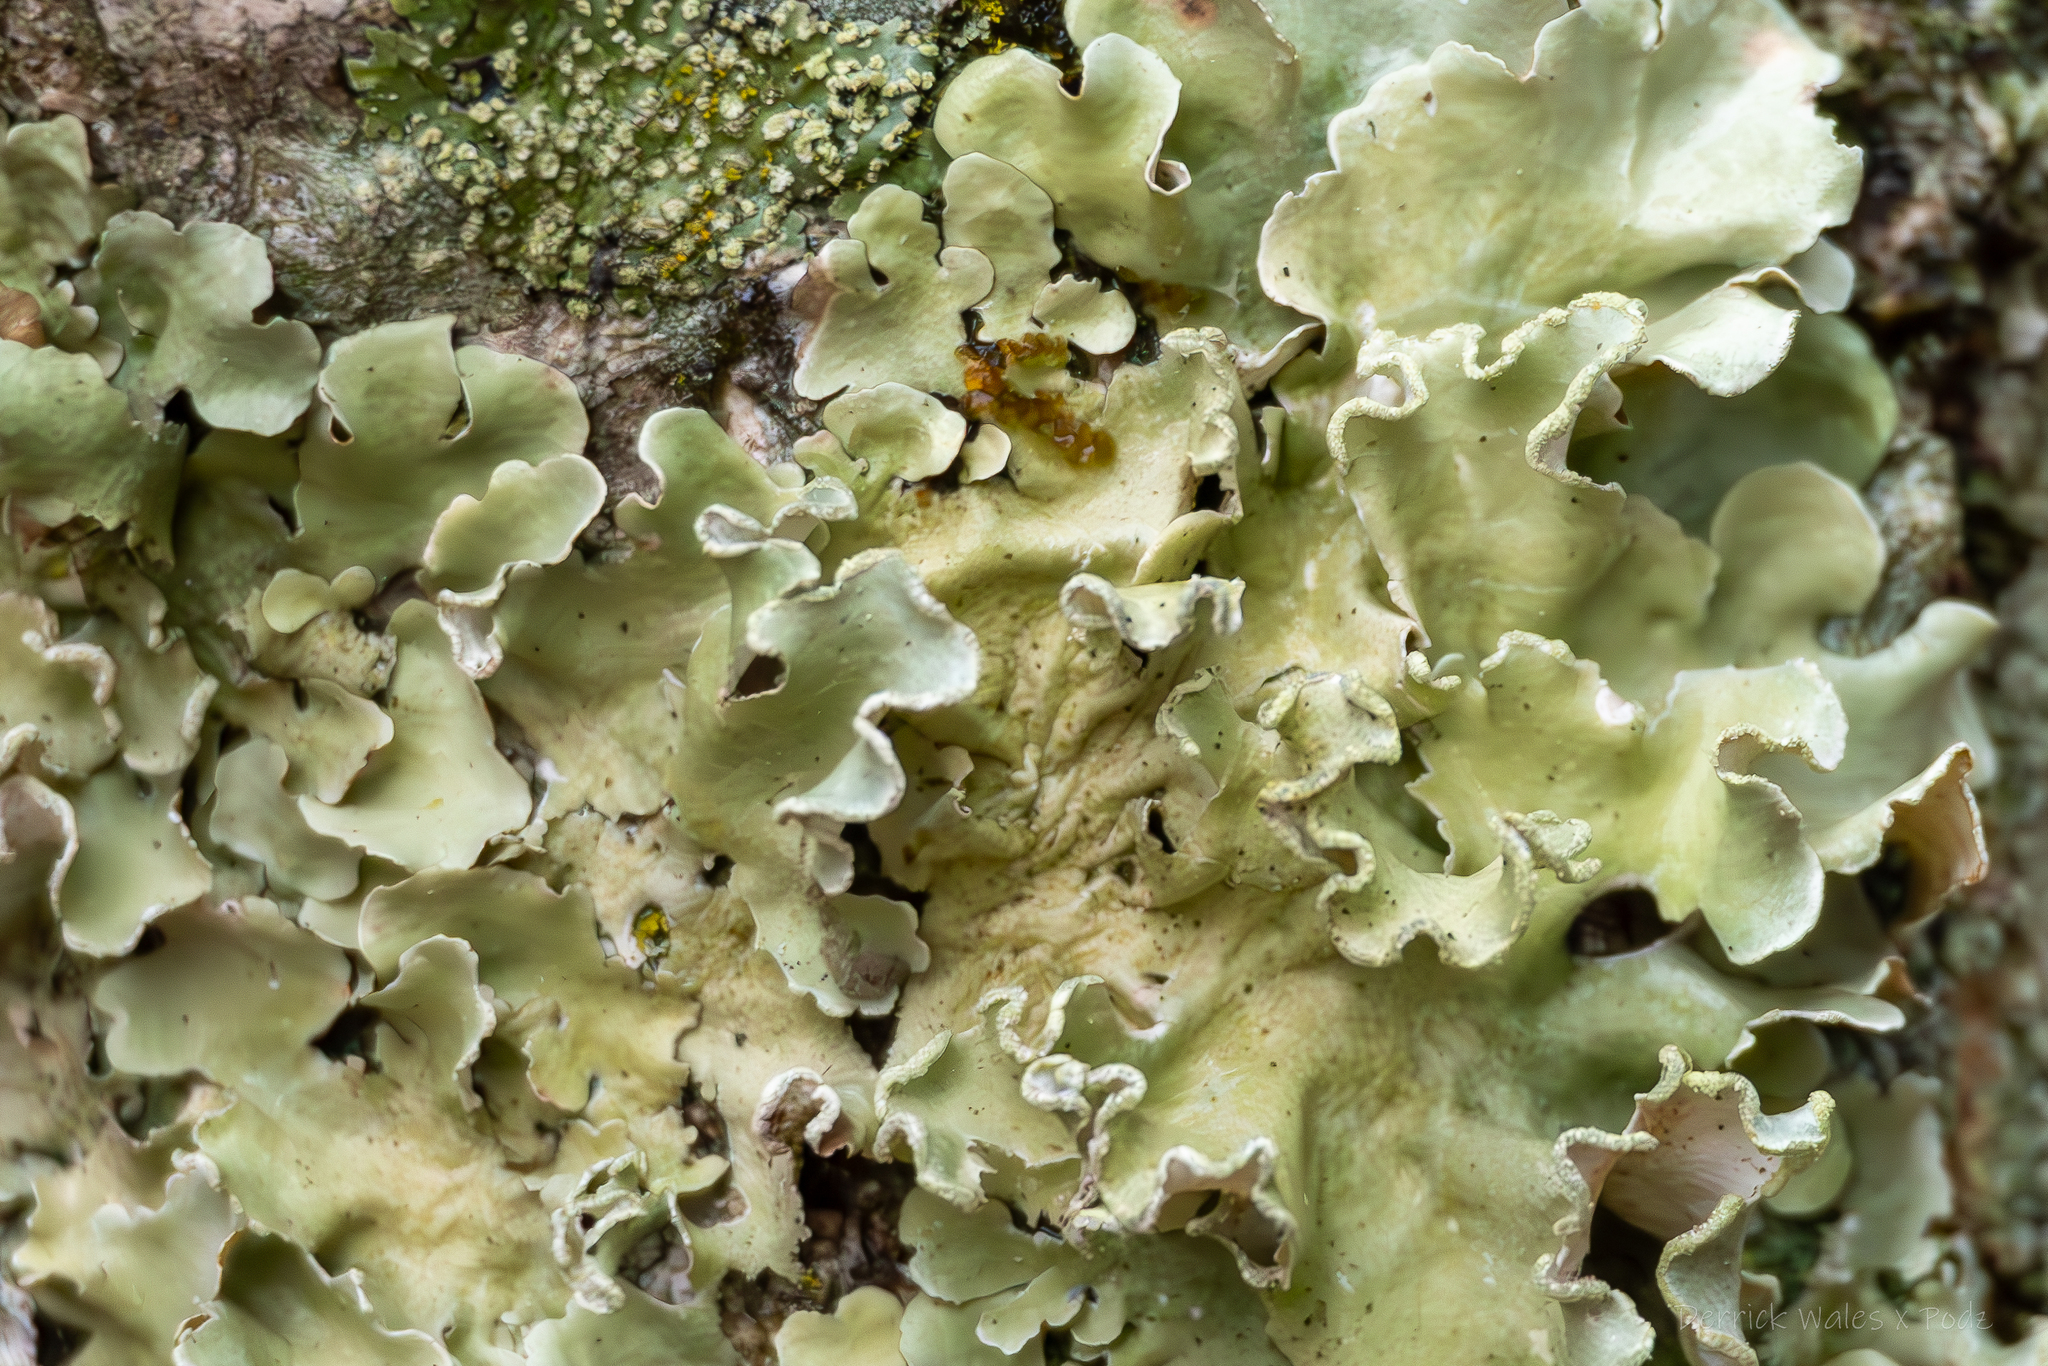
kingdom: Fungi
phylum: Ascomycota
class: Lecanoromycetes
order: Lecanorales
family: Parmeliaceae
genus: Parmotrema
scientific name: Parmotrema austrosinense
